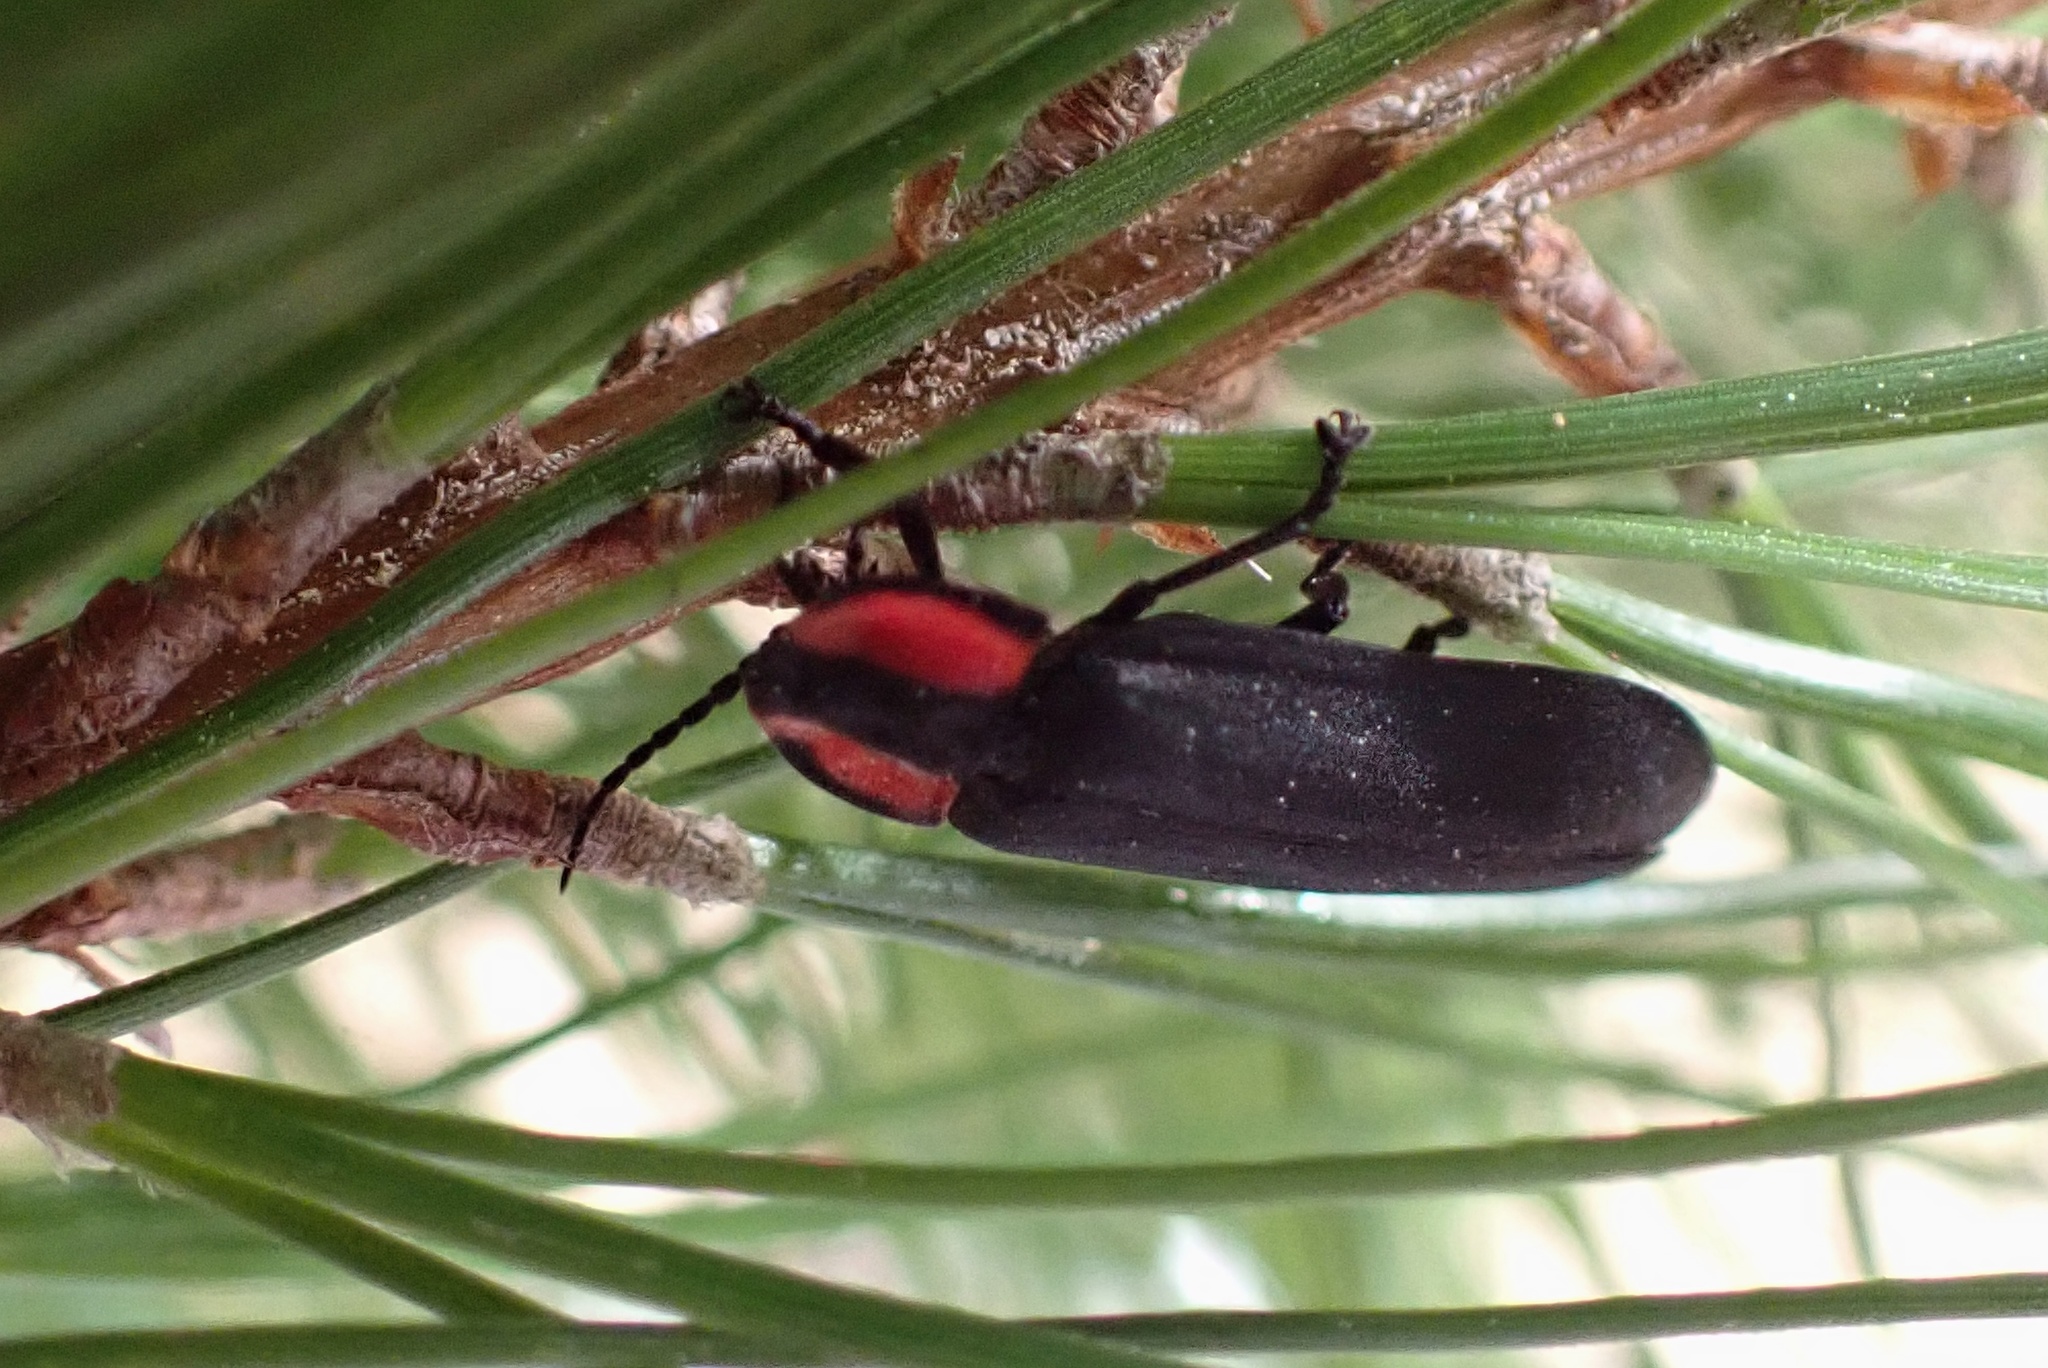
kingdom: Animalia
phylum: Arthropoda
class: Insecta
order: Coleoptera
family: Lampyridae
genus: Photinus
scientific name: Photinus californica
